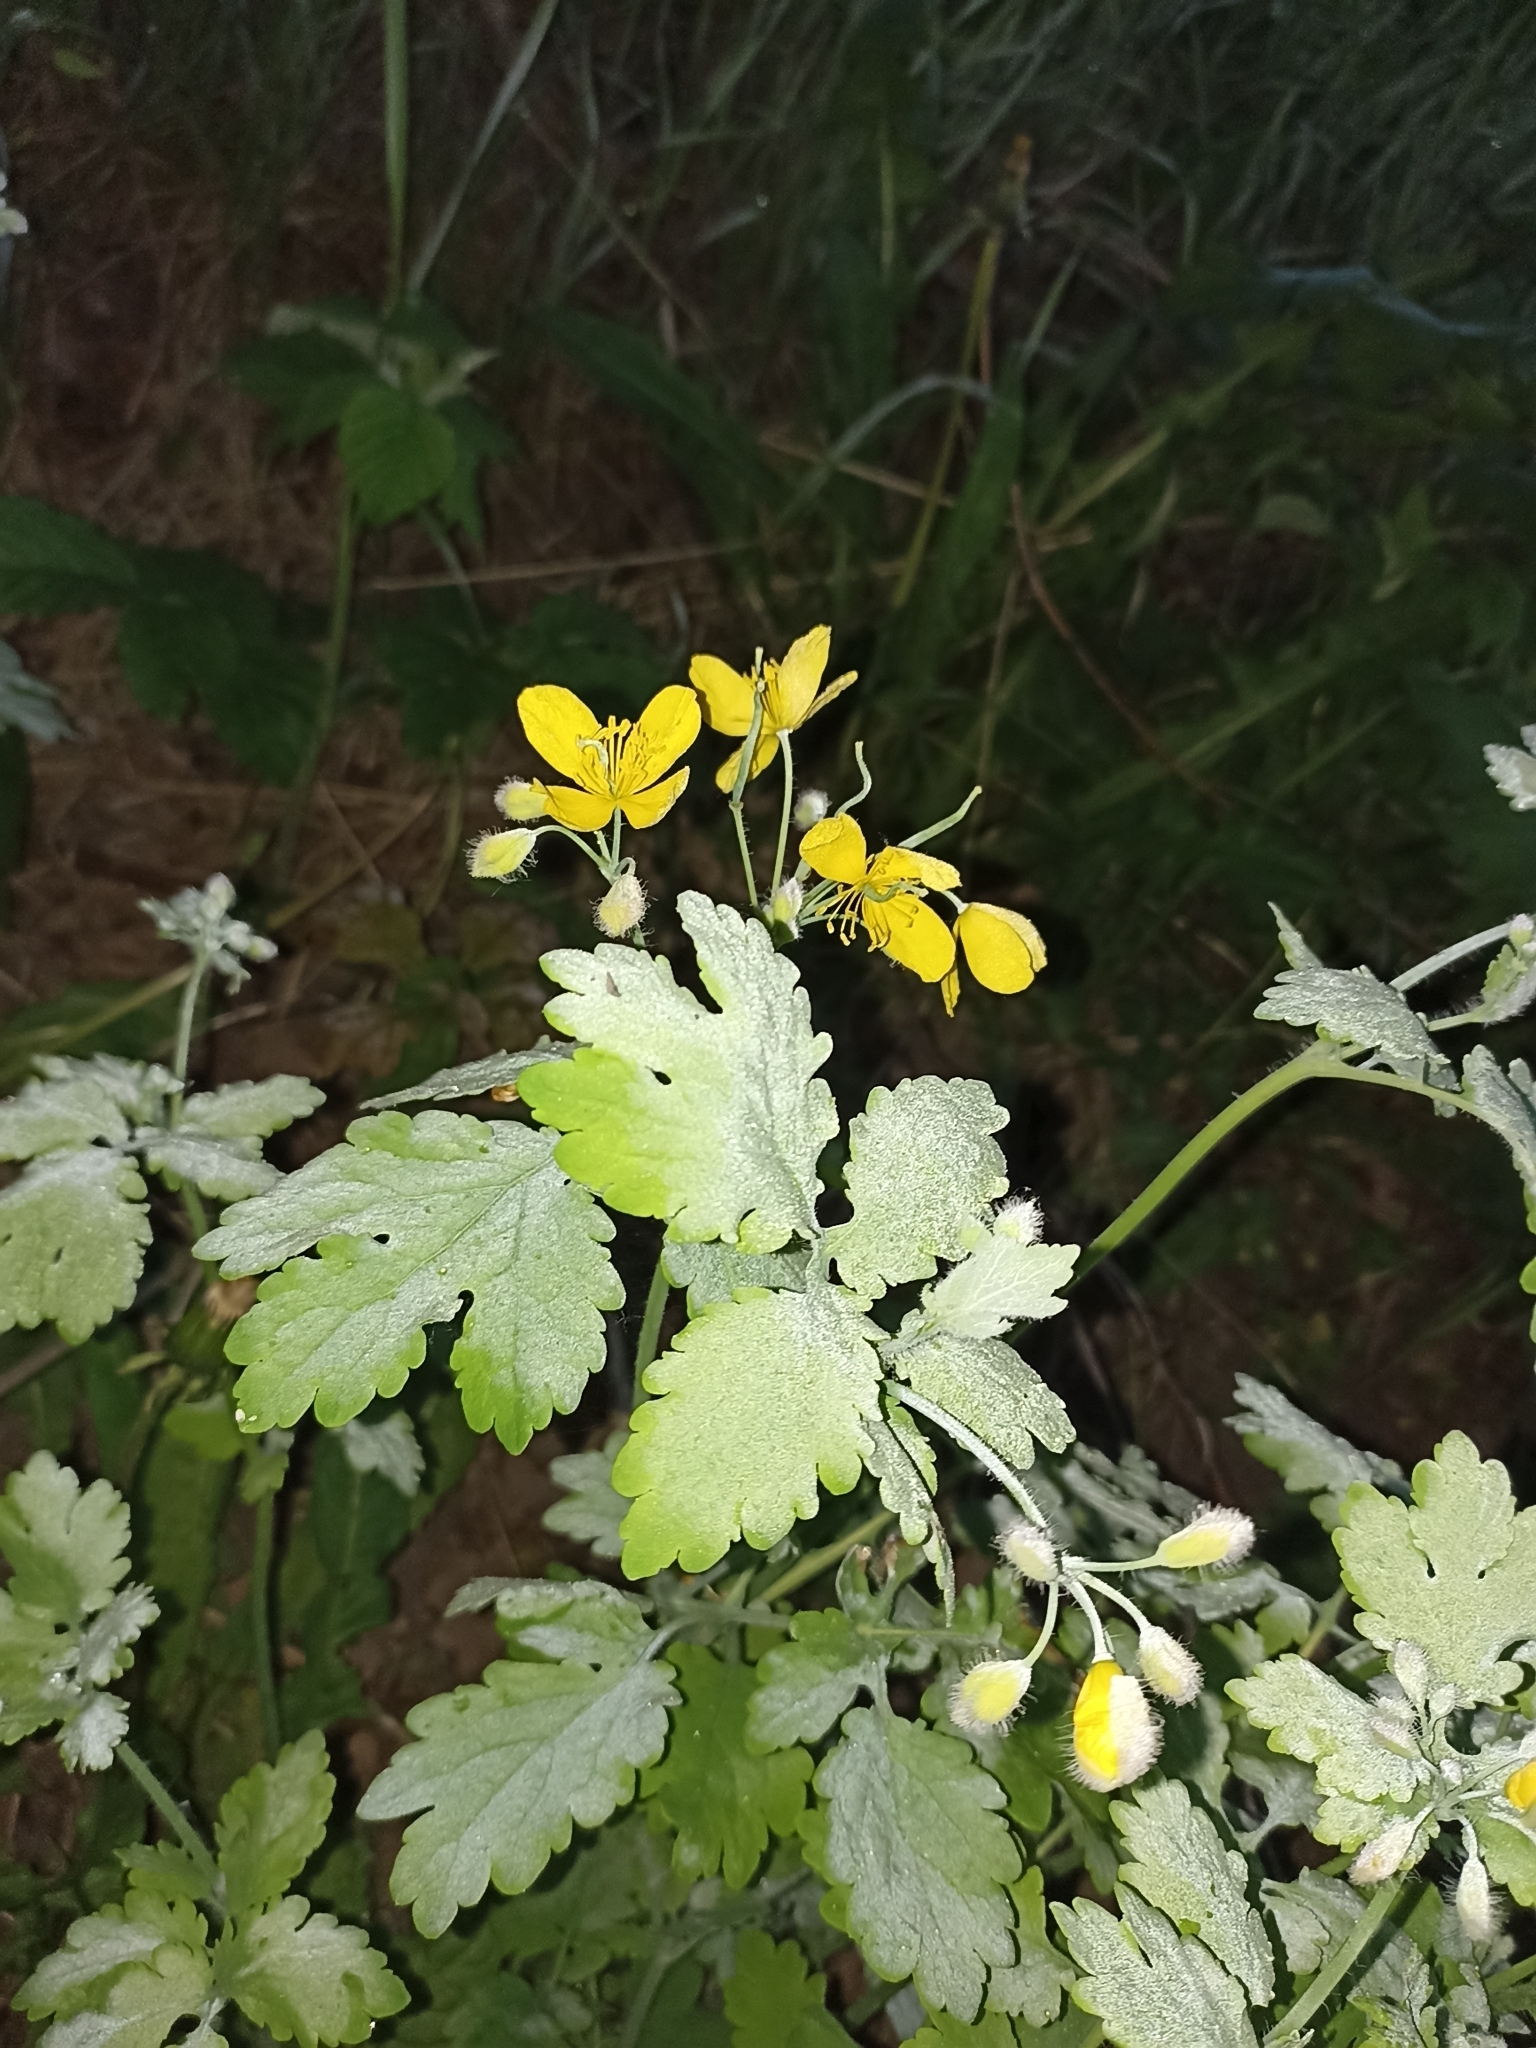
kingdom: Plantae
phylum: Tracheophyta
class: Magnoliopsida
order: Ranunculales
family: Papaveraceae
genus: Chelidonium
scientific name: Chelidonium majus
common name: Greater celandine
